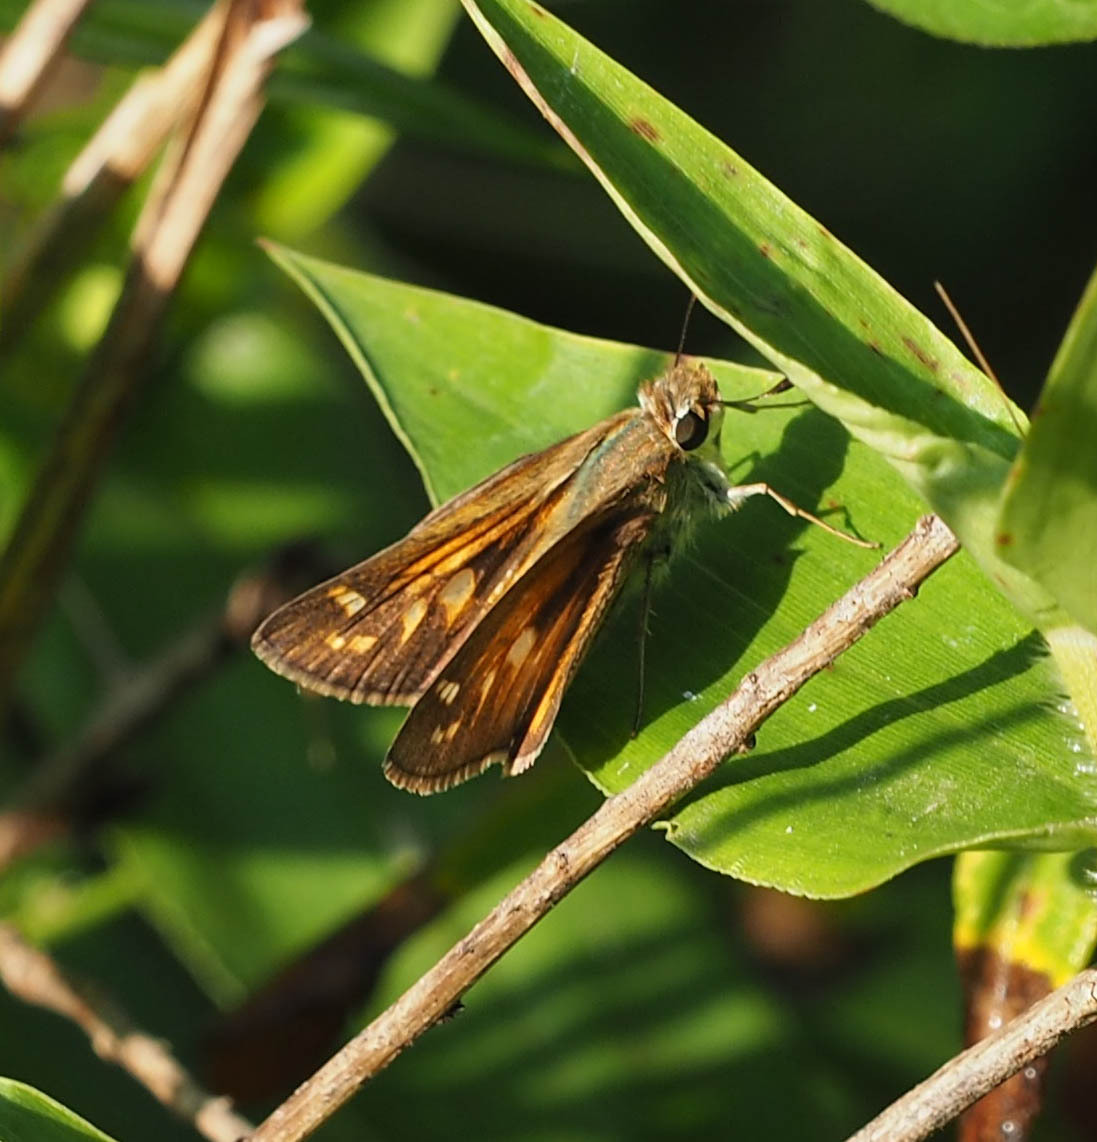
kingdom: Animalia
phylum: Arthropoda
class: Insecta
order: Lepidoptera
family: Hesperiidae
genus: Atalopedes
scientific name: Atalopedes
